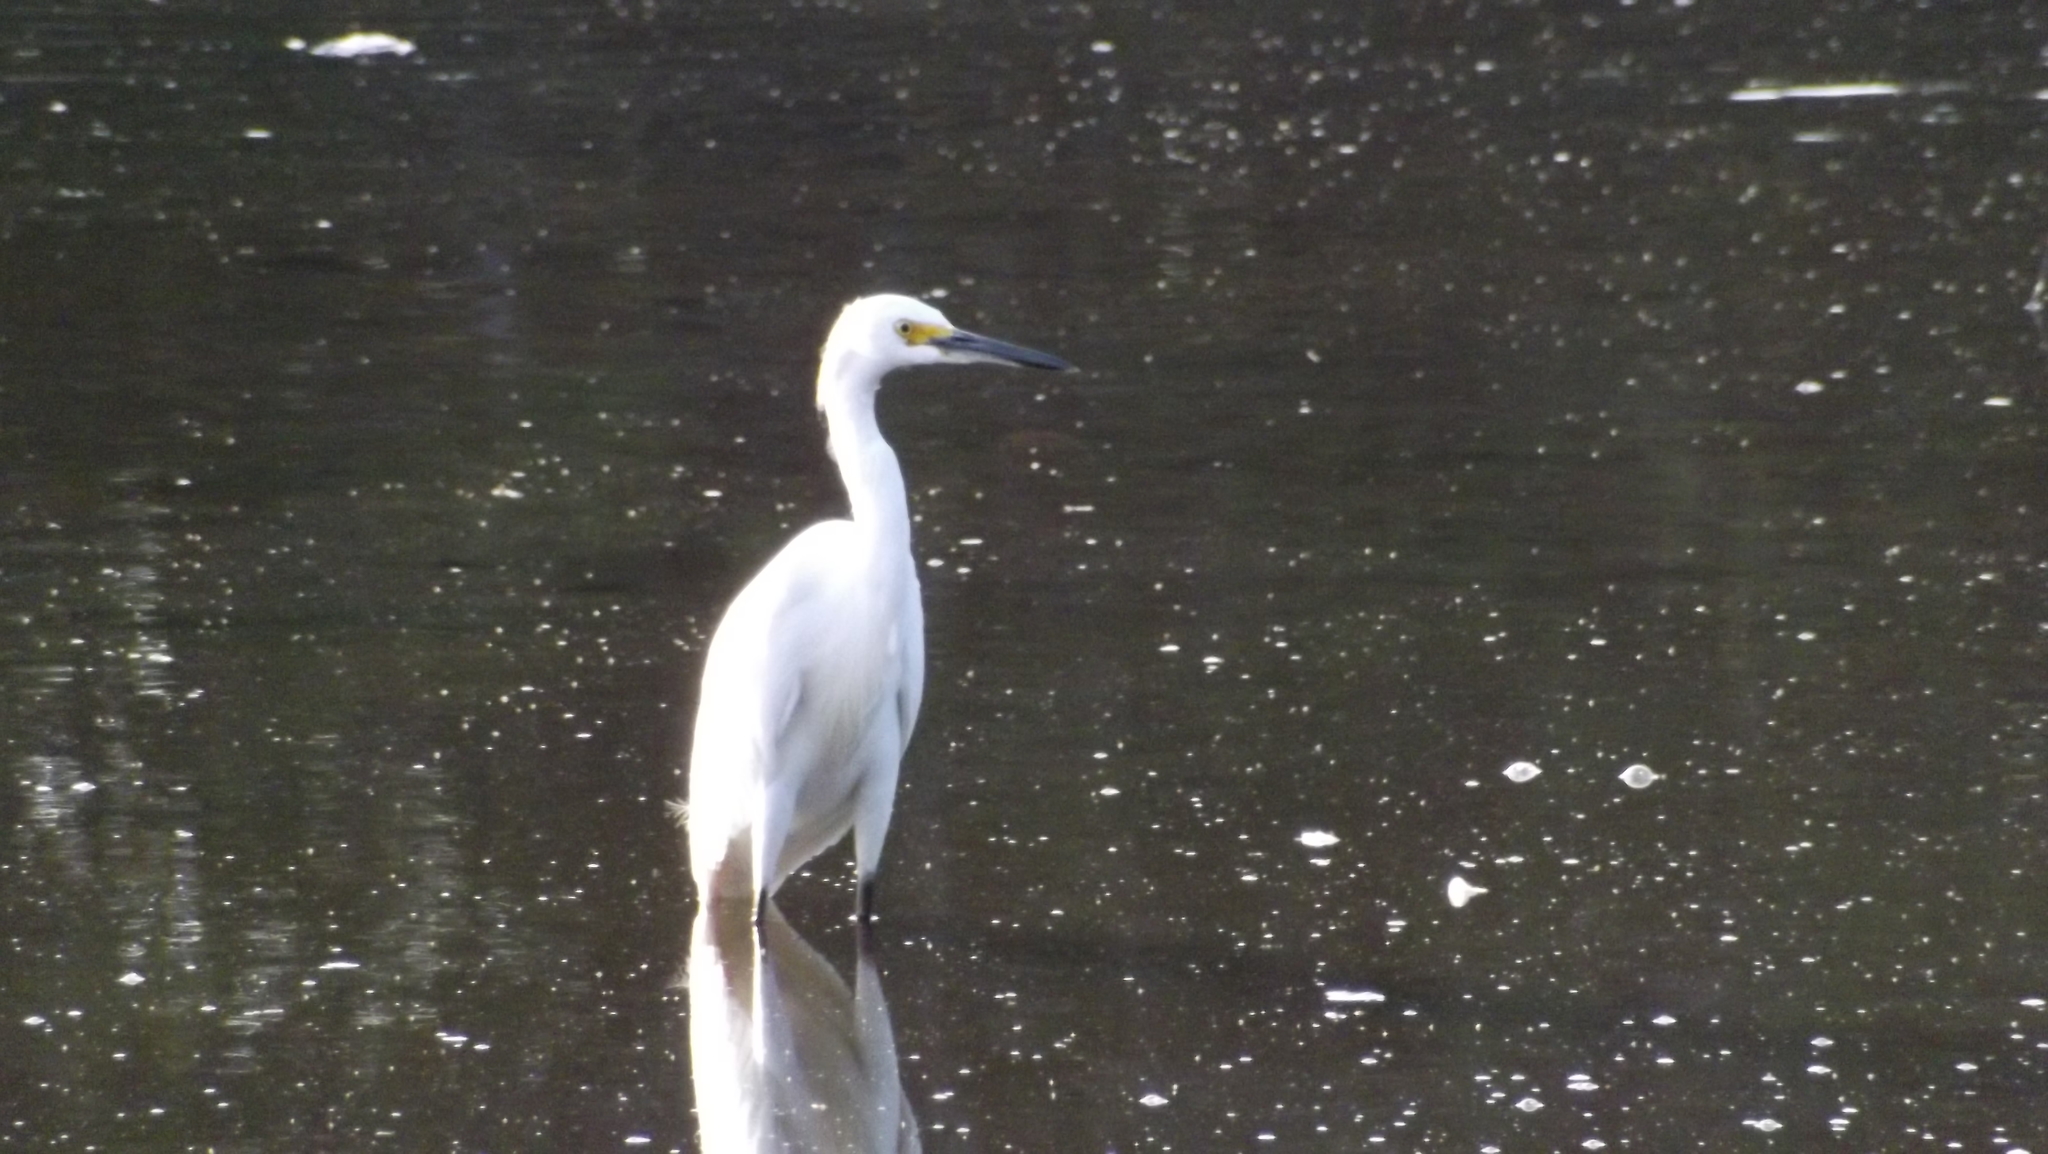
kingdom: Animalia
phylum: Chordata
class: Aves
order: Pelecaniformes
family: Ardeidae
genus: Egretta
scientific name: Egretta thula
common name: Snowy egret
